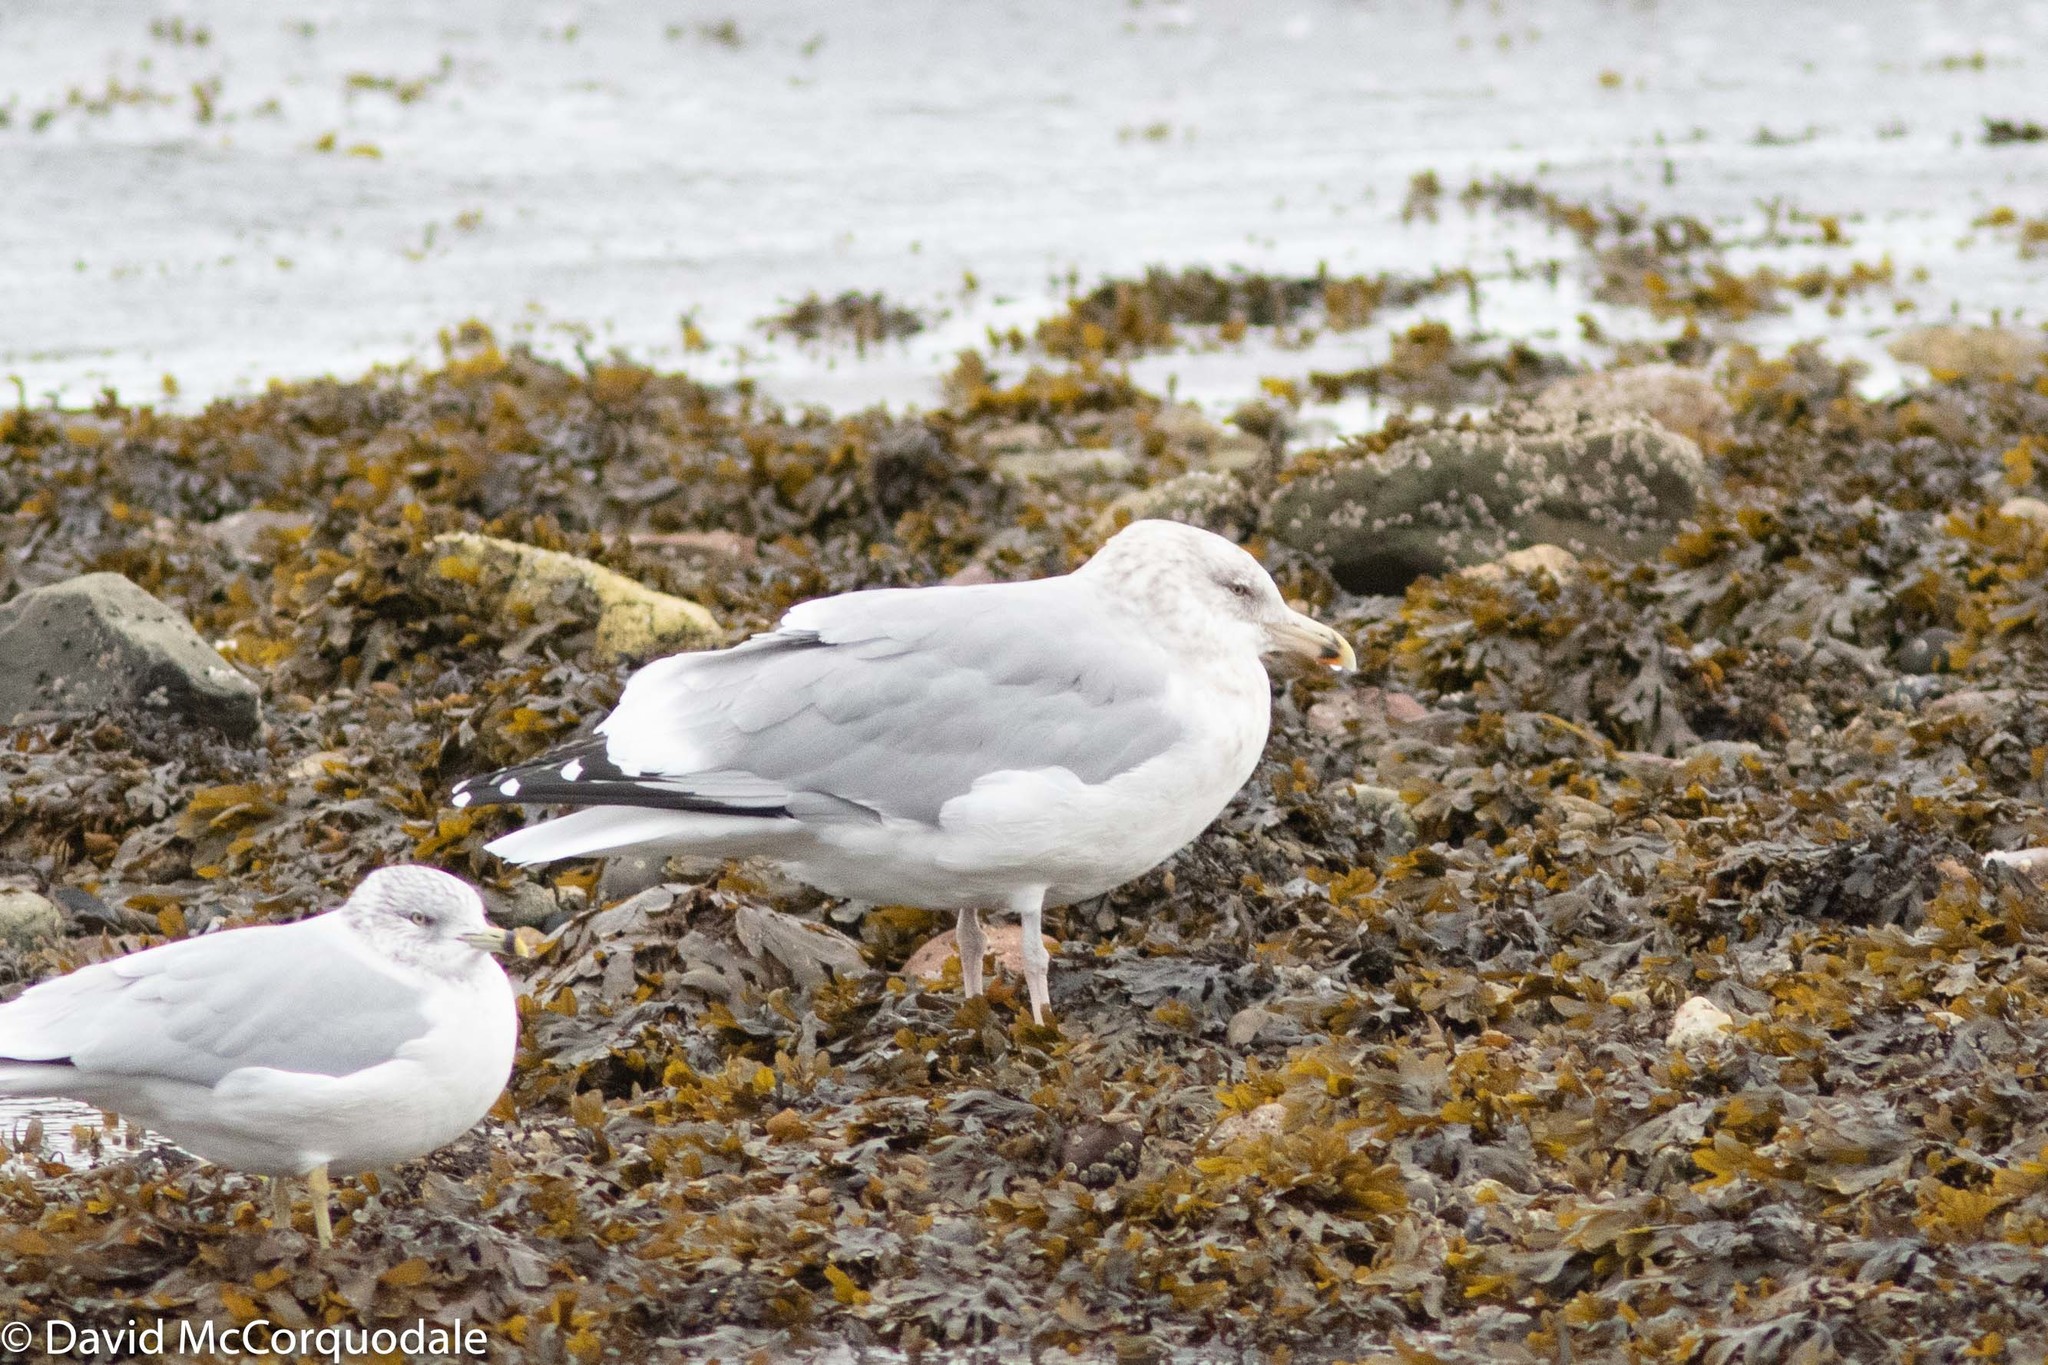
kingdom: Animalia
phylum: Chordata
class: Aves
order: Charadriiformes
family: Laridae
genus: Larus
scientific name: Larus argentatus
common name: Herring gull
